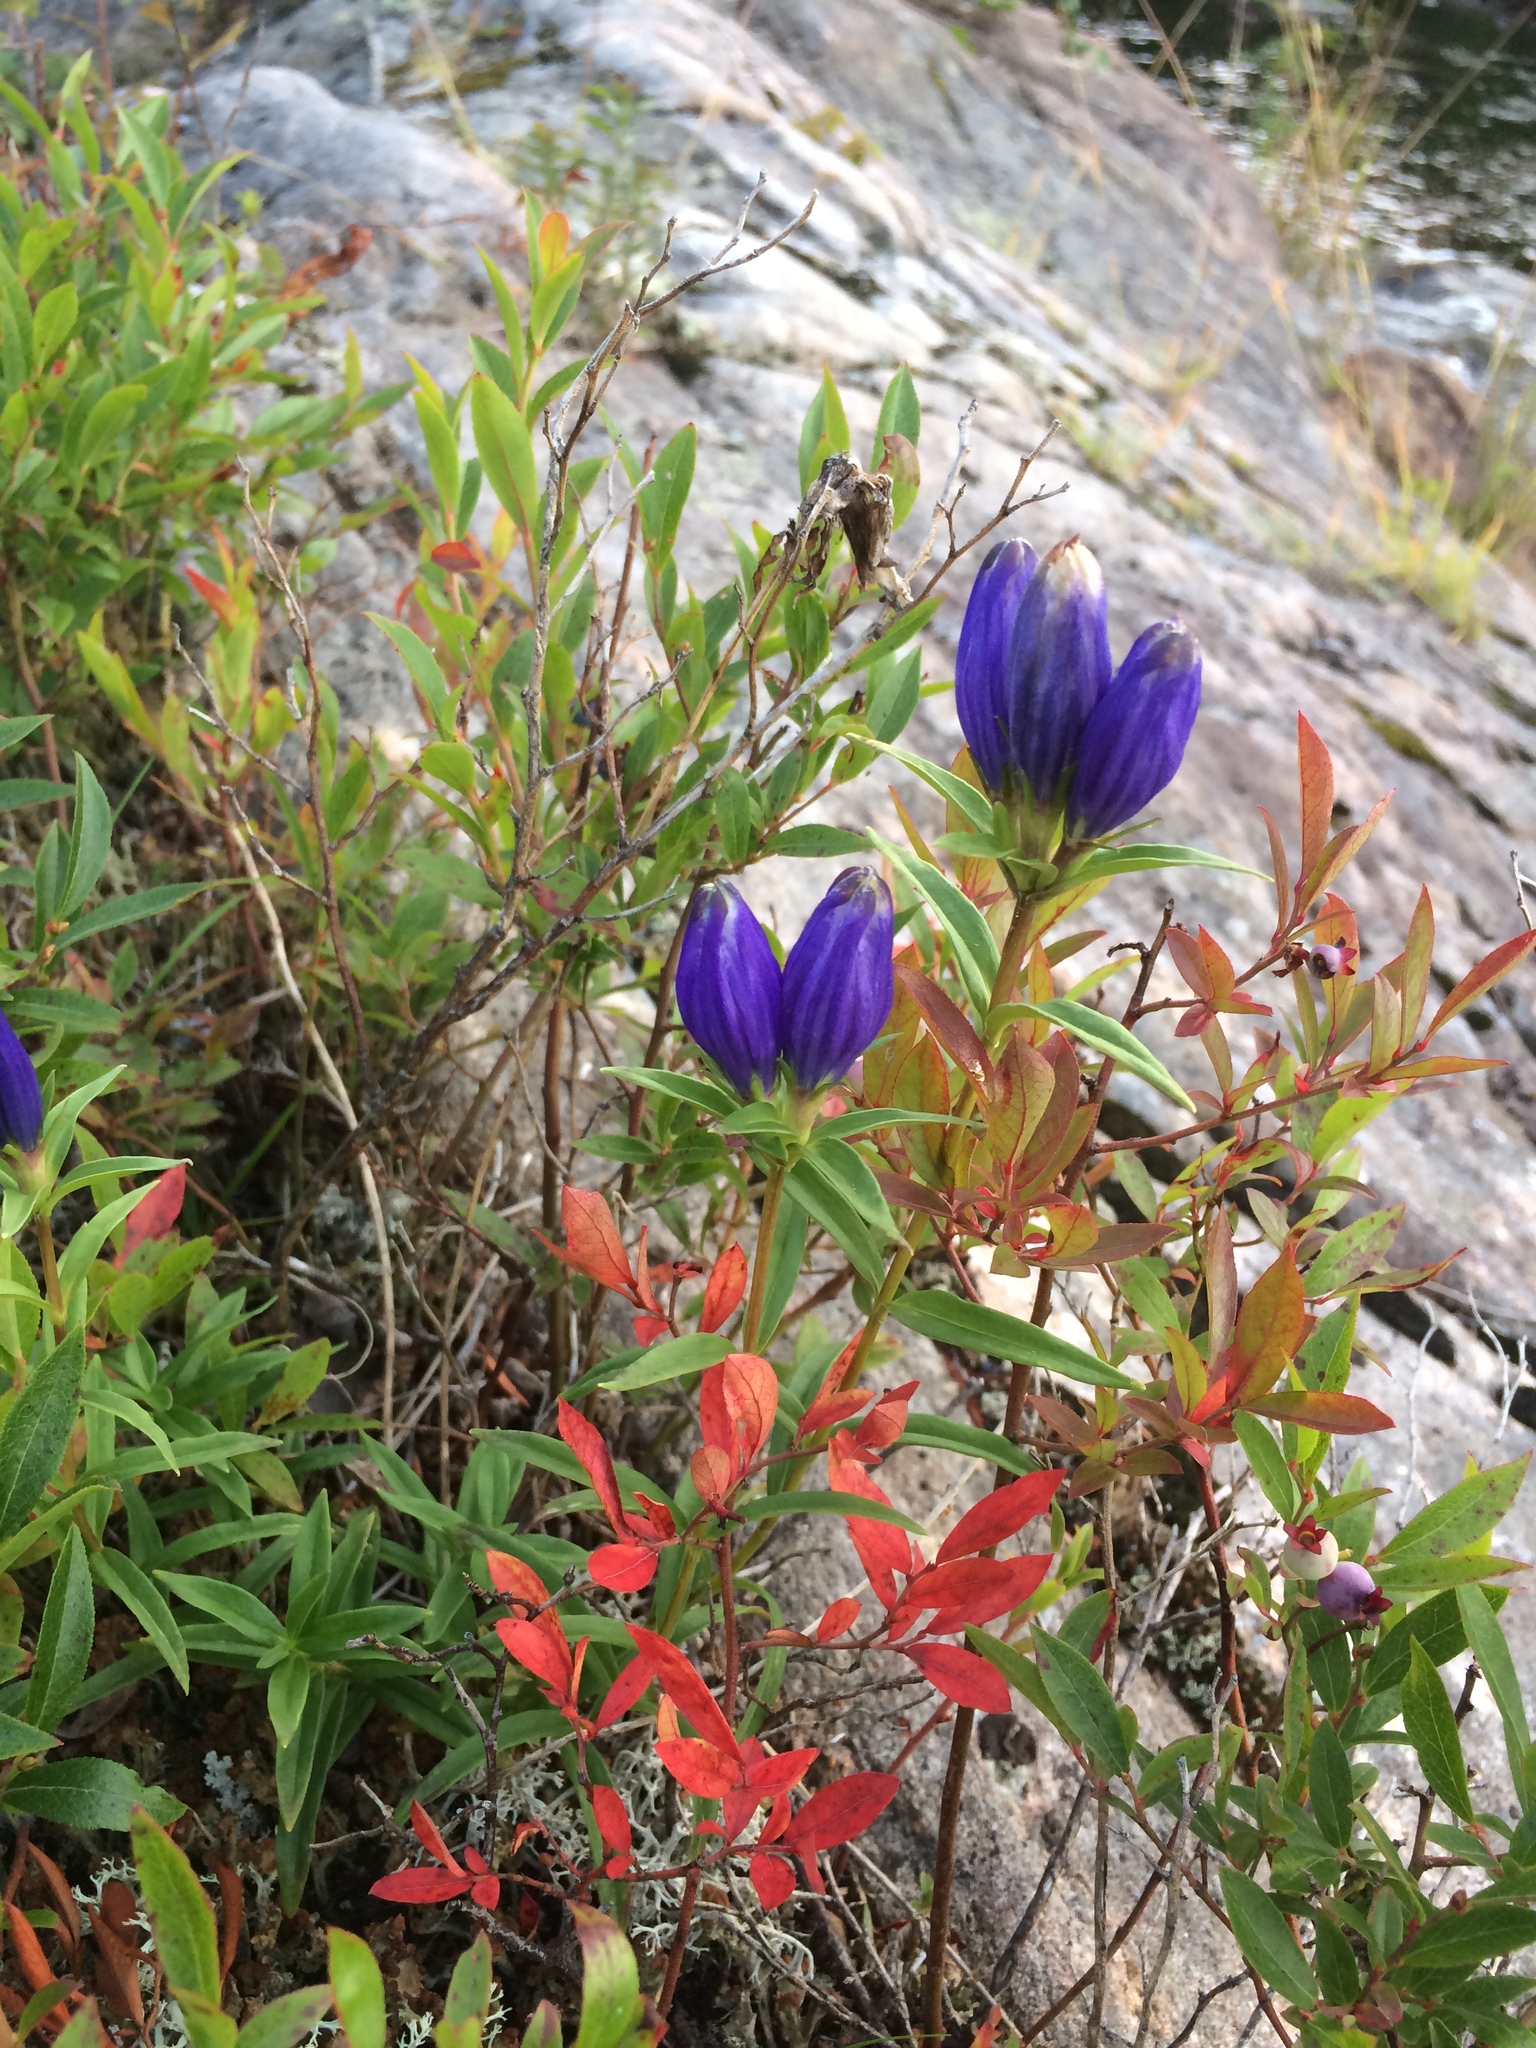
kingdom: Plantae
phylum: Tracheophyta
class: Magnoliopsida
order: Gentianales
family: Gentianaceae
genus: Gentiana
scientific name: Gentiana linearis
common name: Bastard gentian
